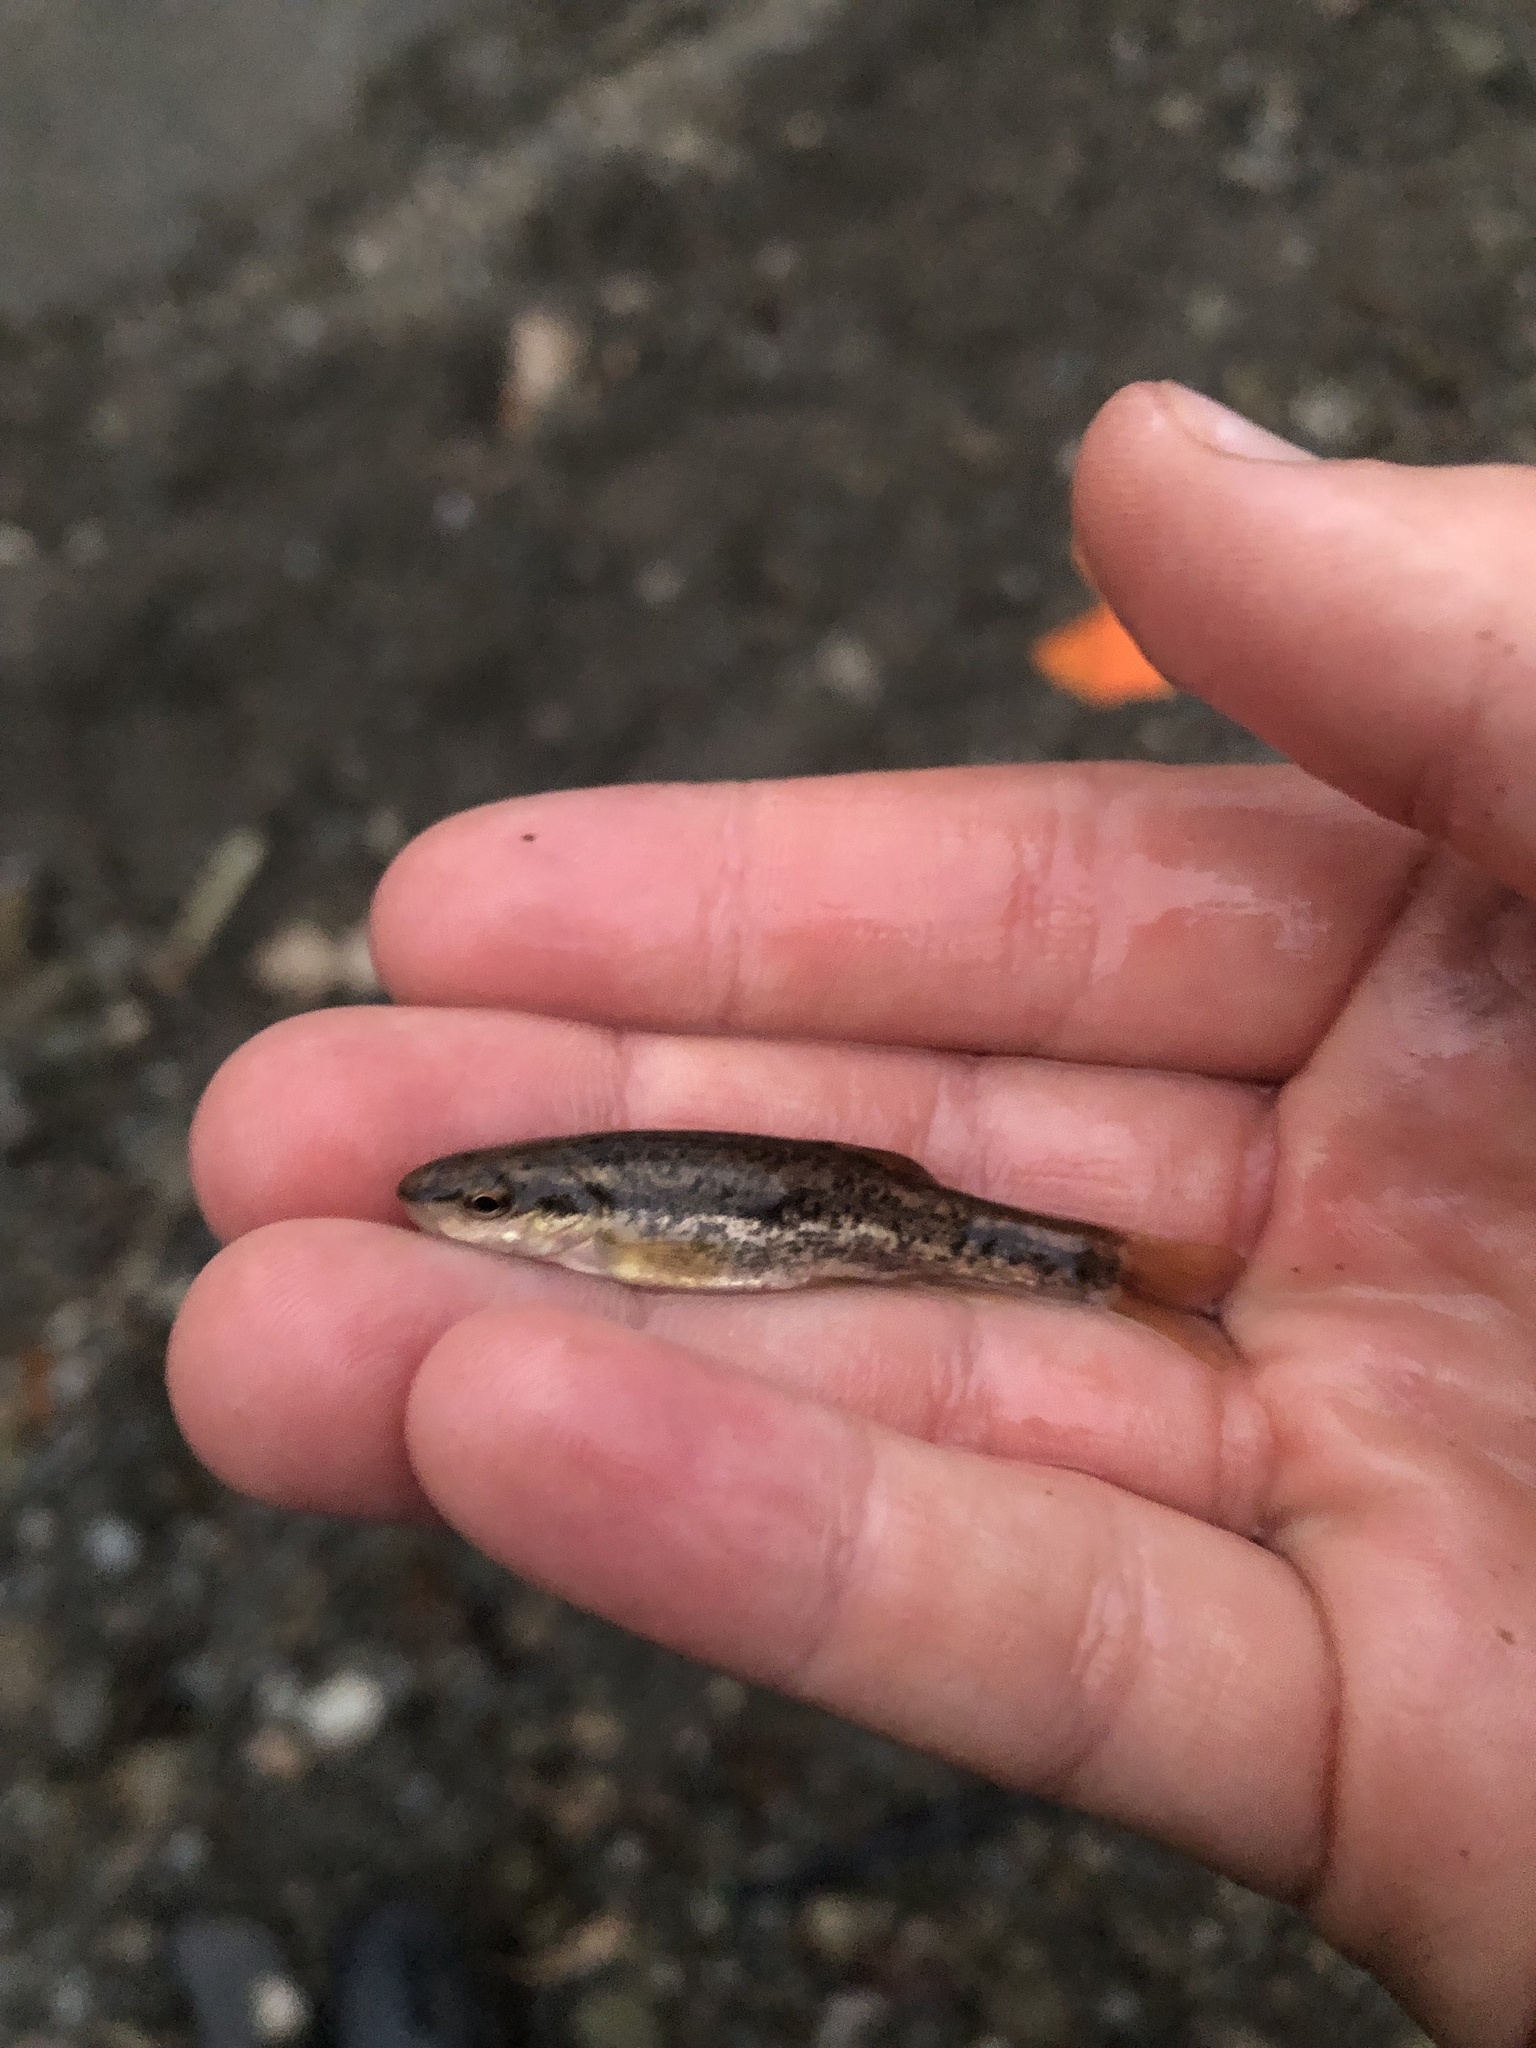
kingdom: Animalia
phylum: Chordata
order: Cypriniformes
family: Cyprinidae
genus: Rhinichthys
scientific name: Rhinichthys obtusus
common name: Western blacknose dace
